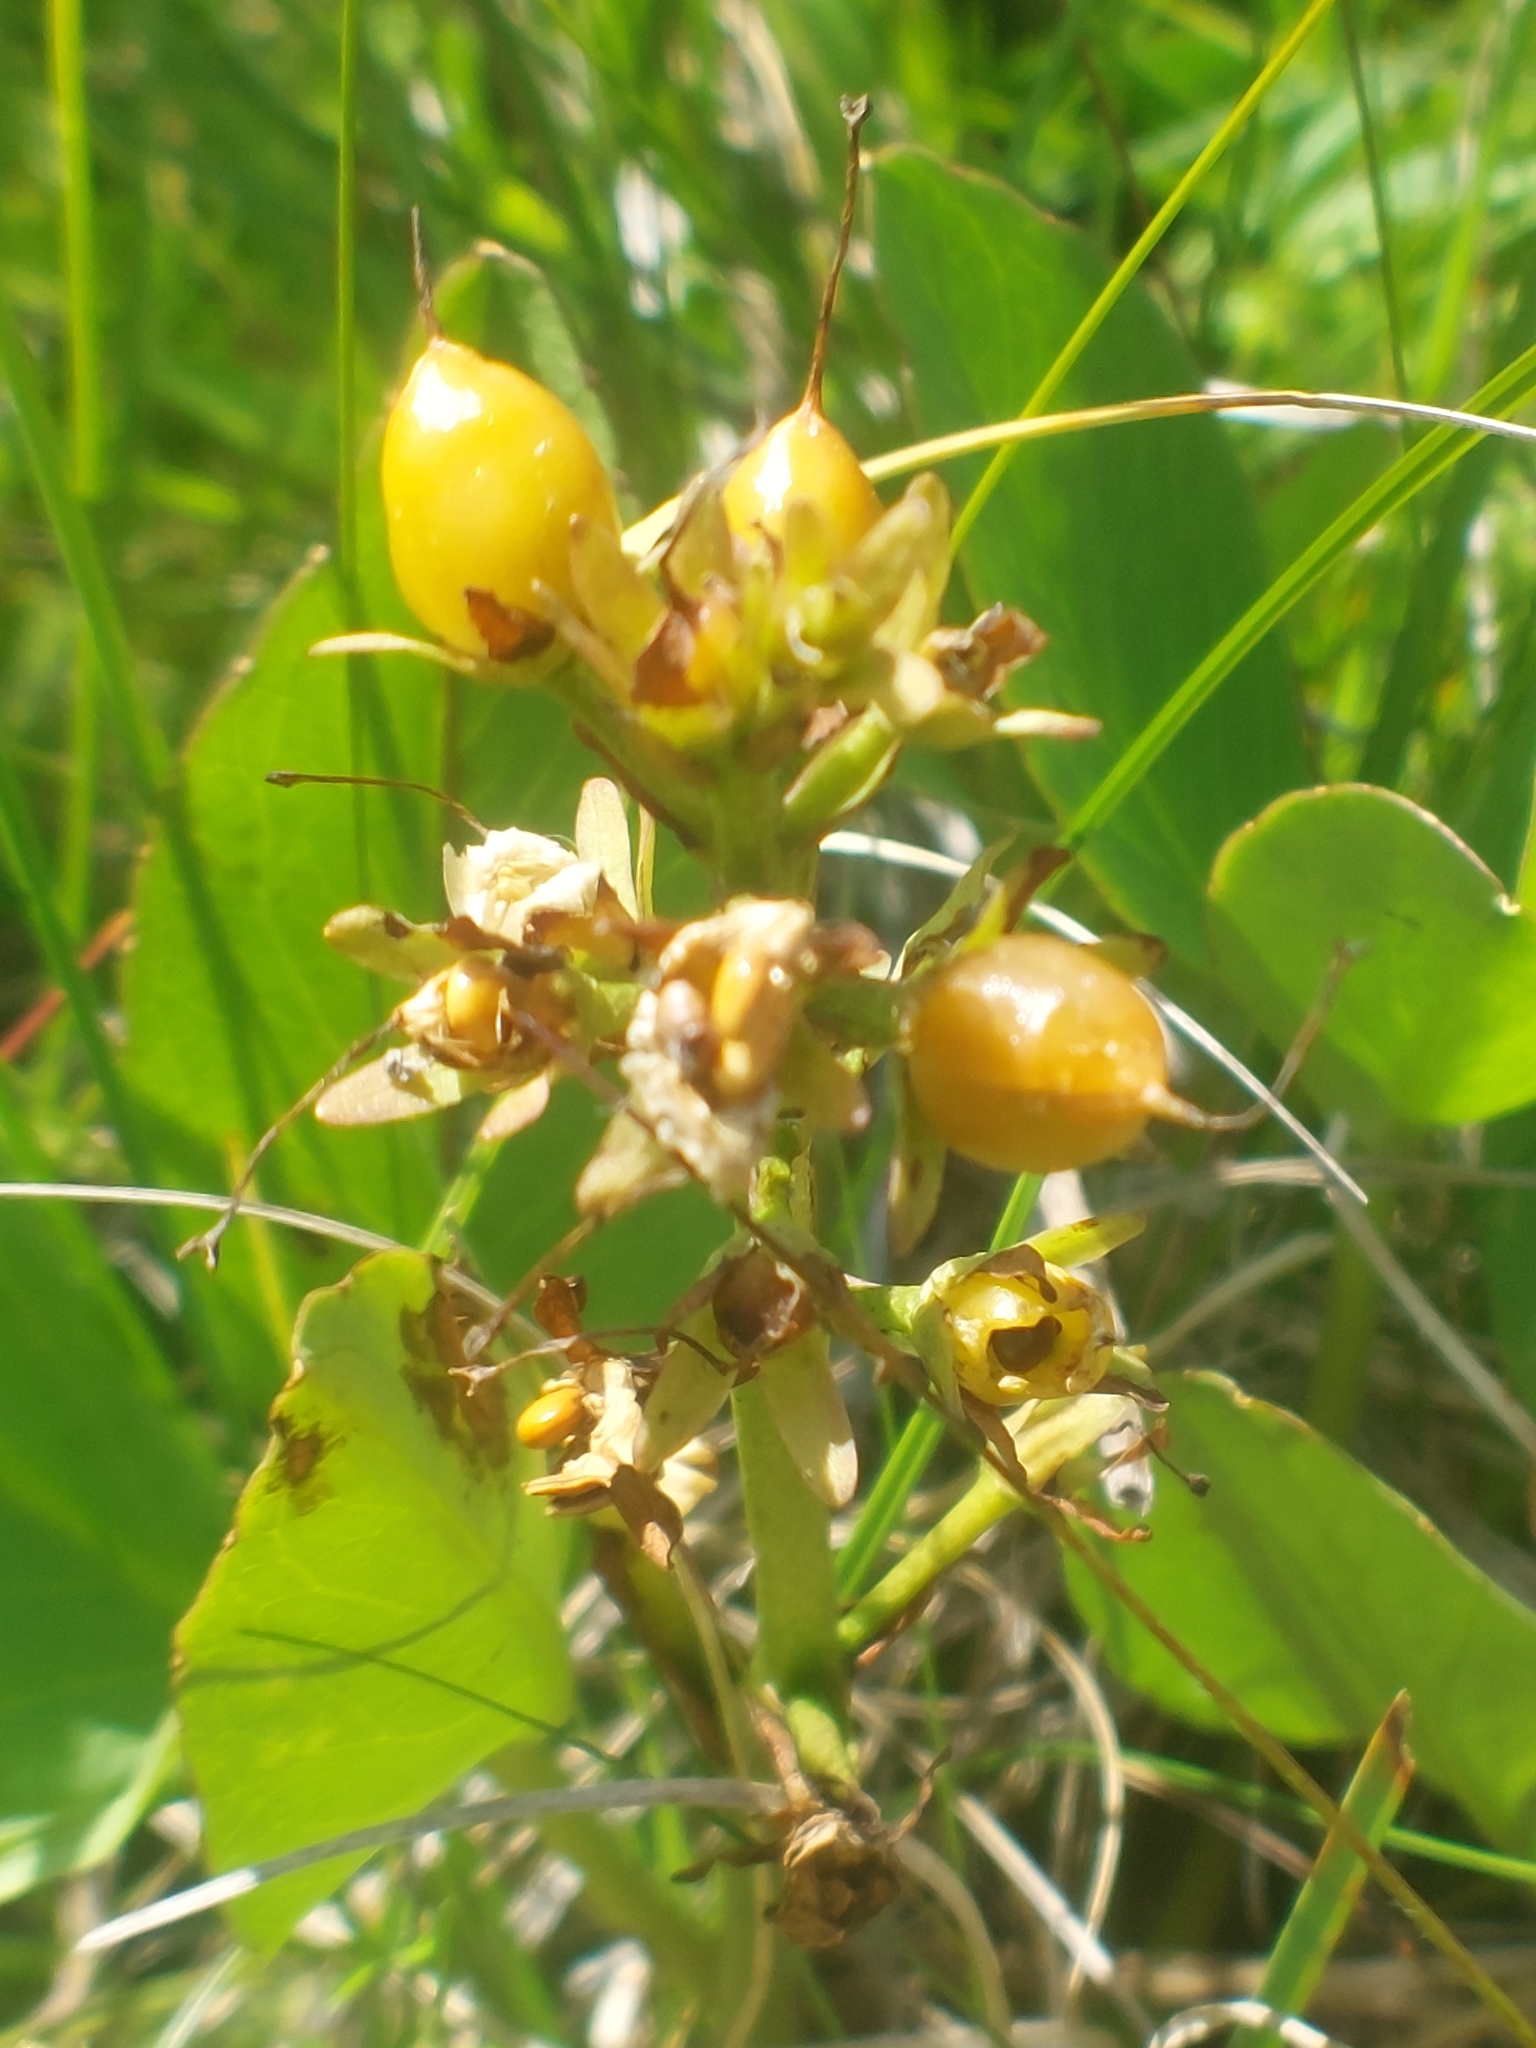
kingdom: Plantae
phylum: Tracheophyta
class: Magnoliopsida
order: Asterales
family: Menyanthaceae
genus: Menyanthes
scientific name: Menyanthes trifoliata
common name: Bogbean
